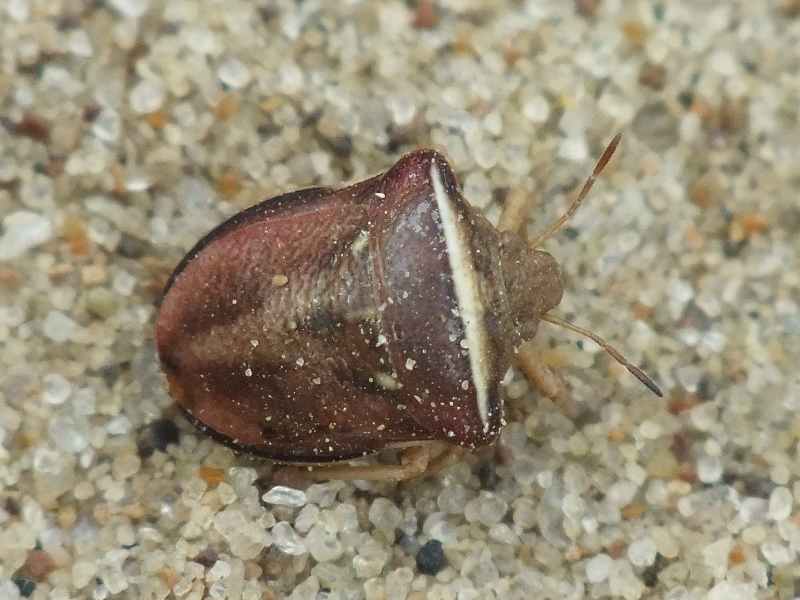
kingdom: Animalia
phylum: Arthropoda
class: Insecta
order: Hemiptera
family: Pentatomidae
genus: Ventocoris
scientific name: Ventocoris halophilum
